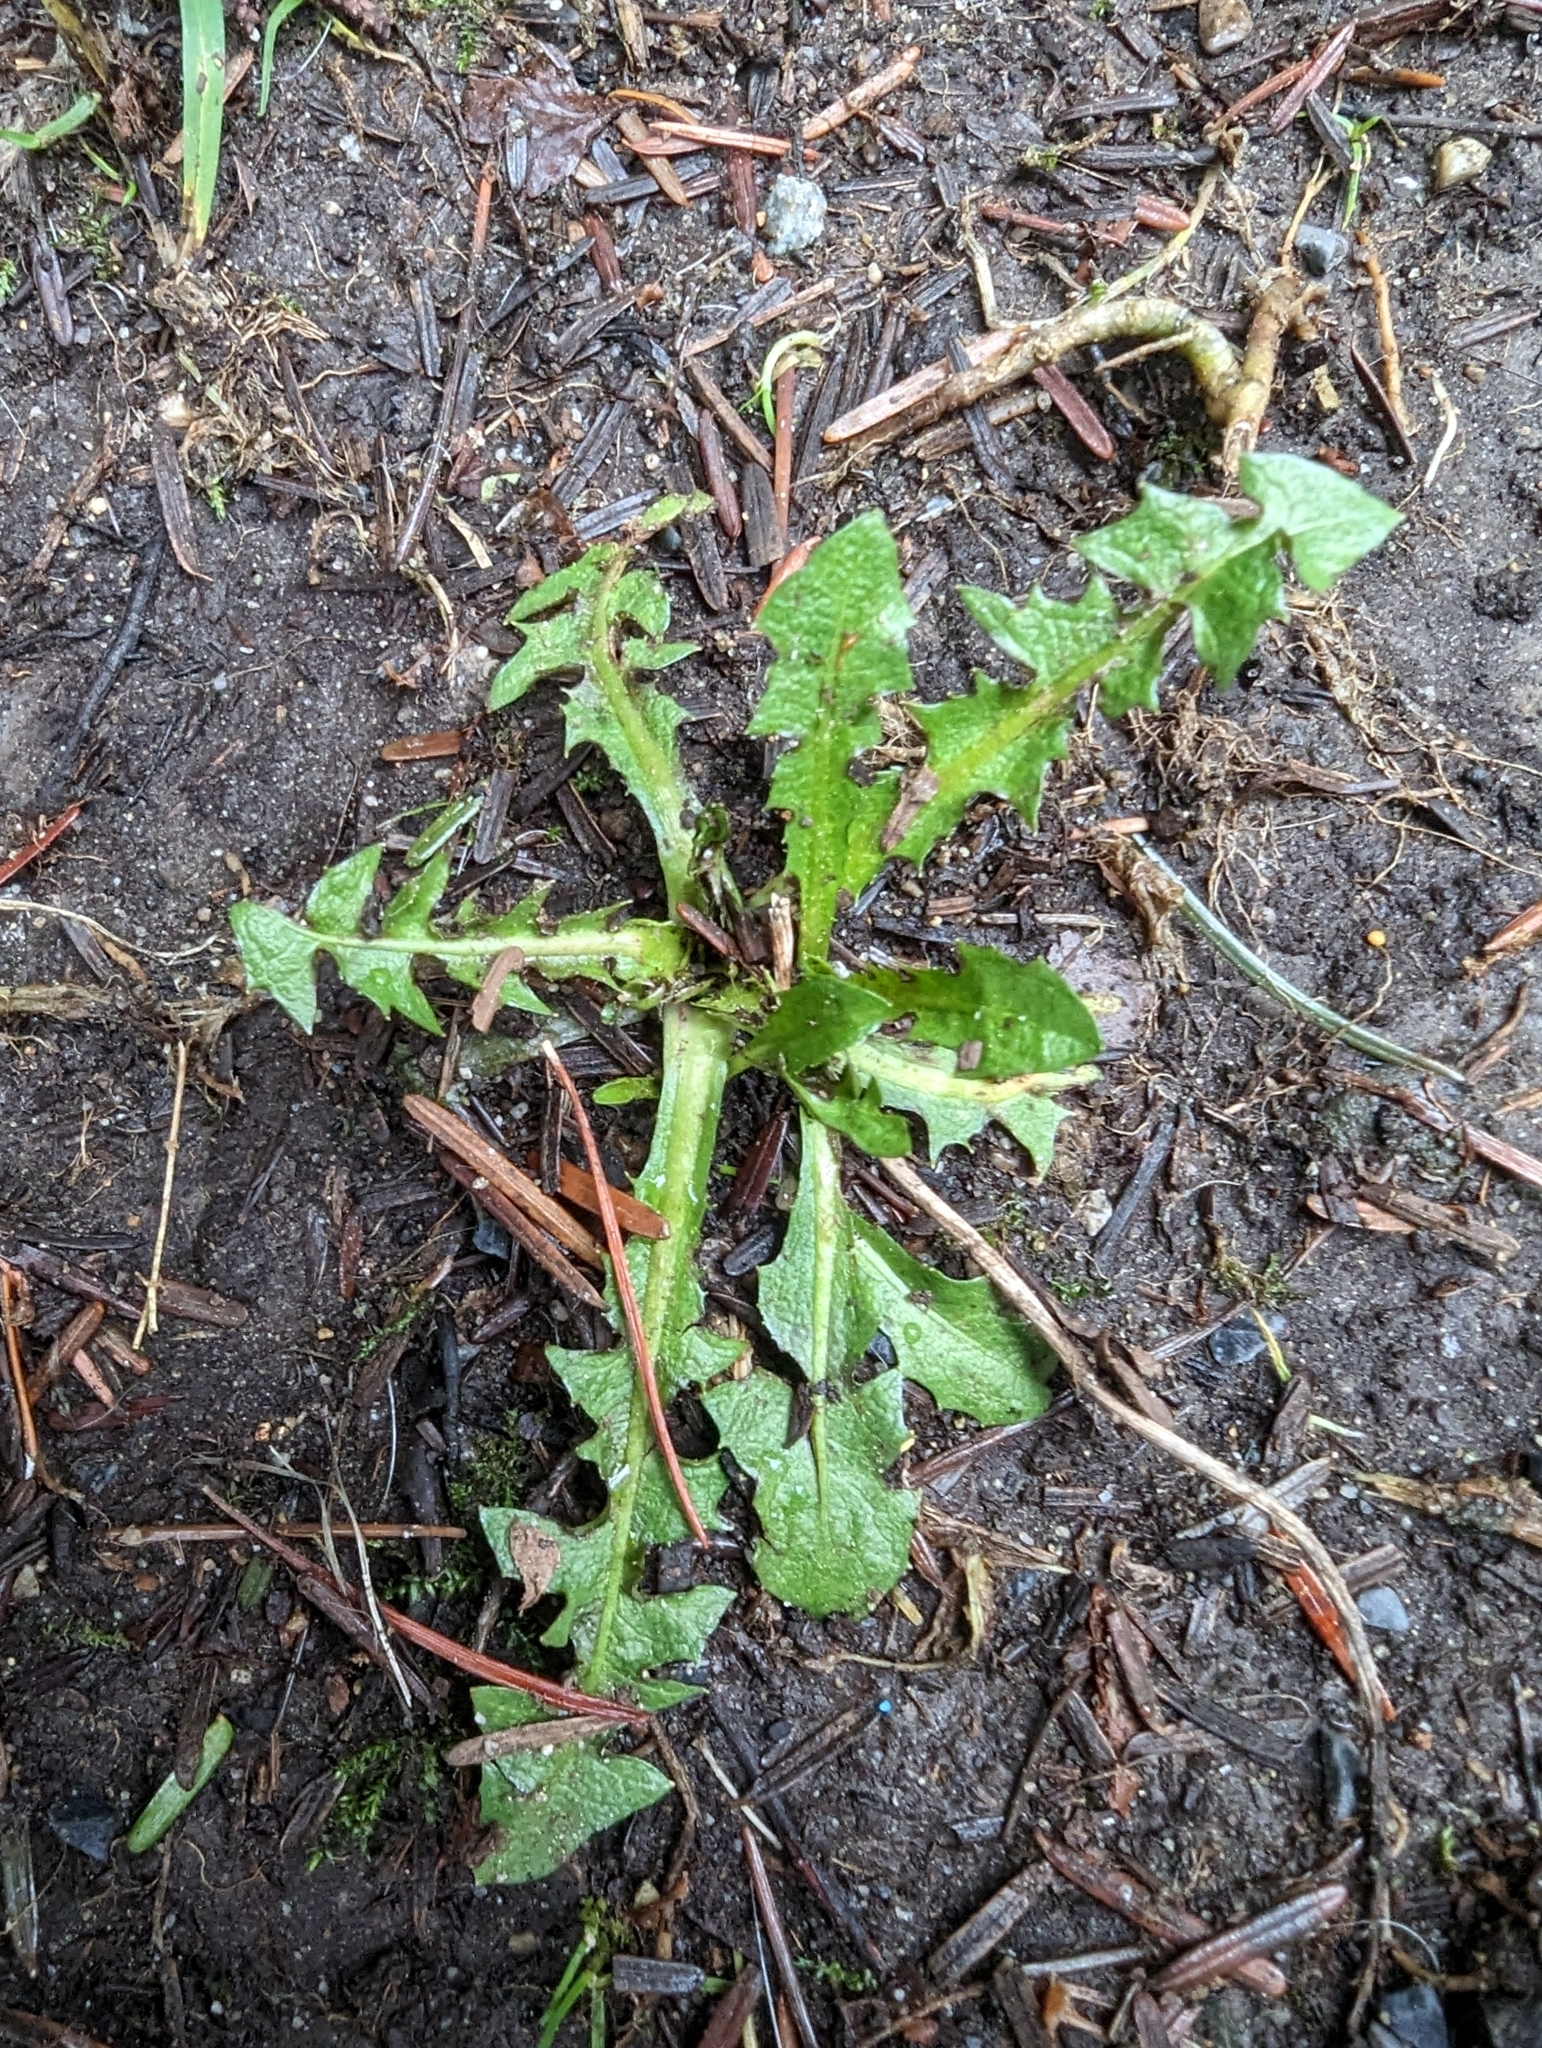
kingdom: Plantae
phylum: Tracheophyta
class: Magnoliopsida
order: Asterales
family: Asteraceae
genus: Taraxacum
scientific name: Taraxacum officinale
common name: Common dandelion
